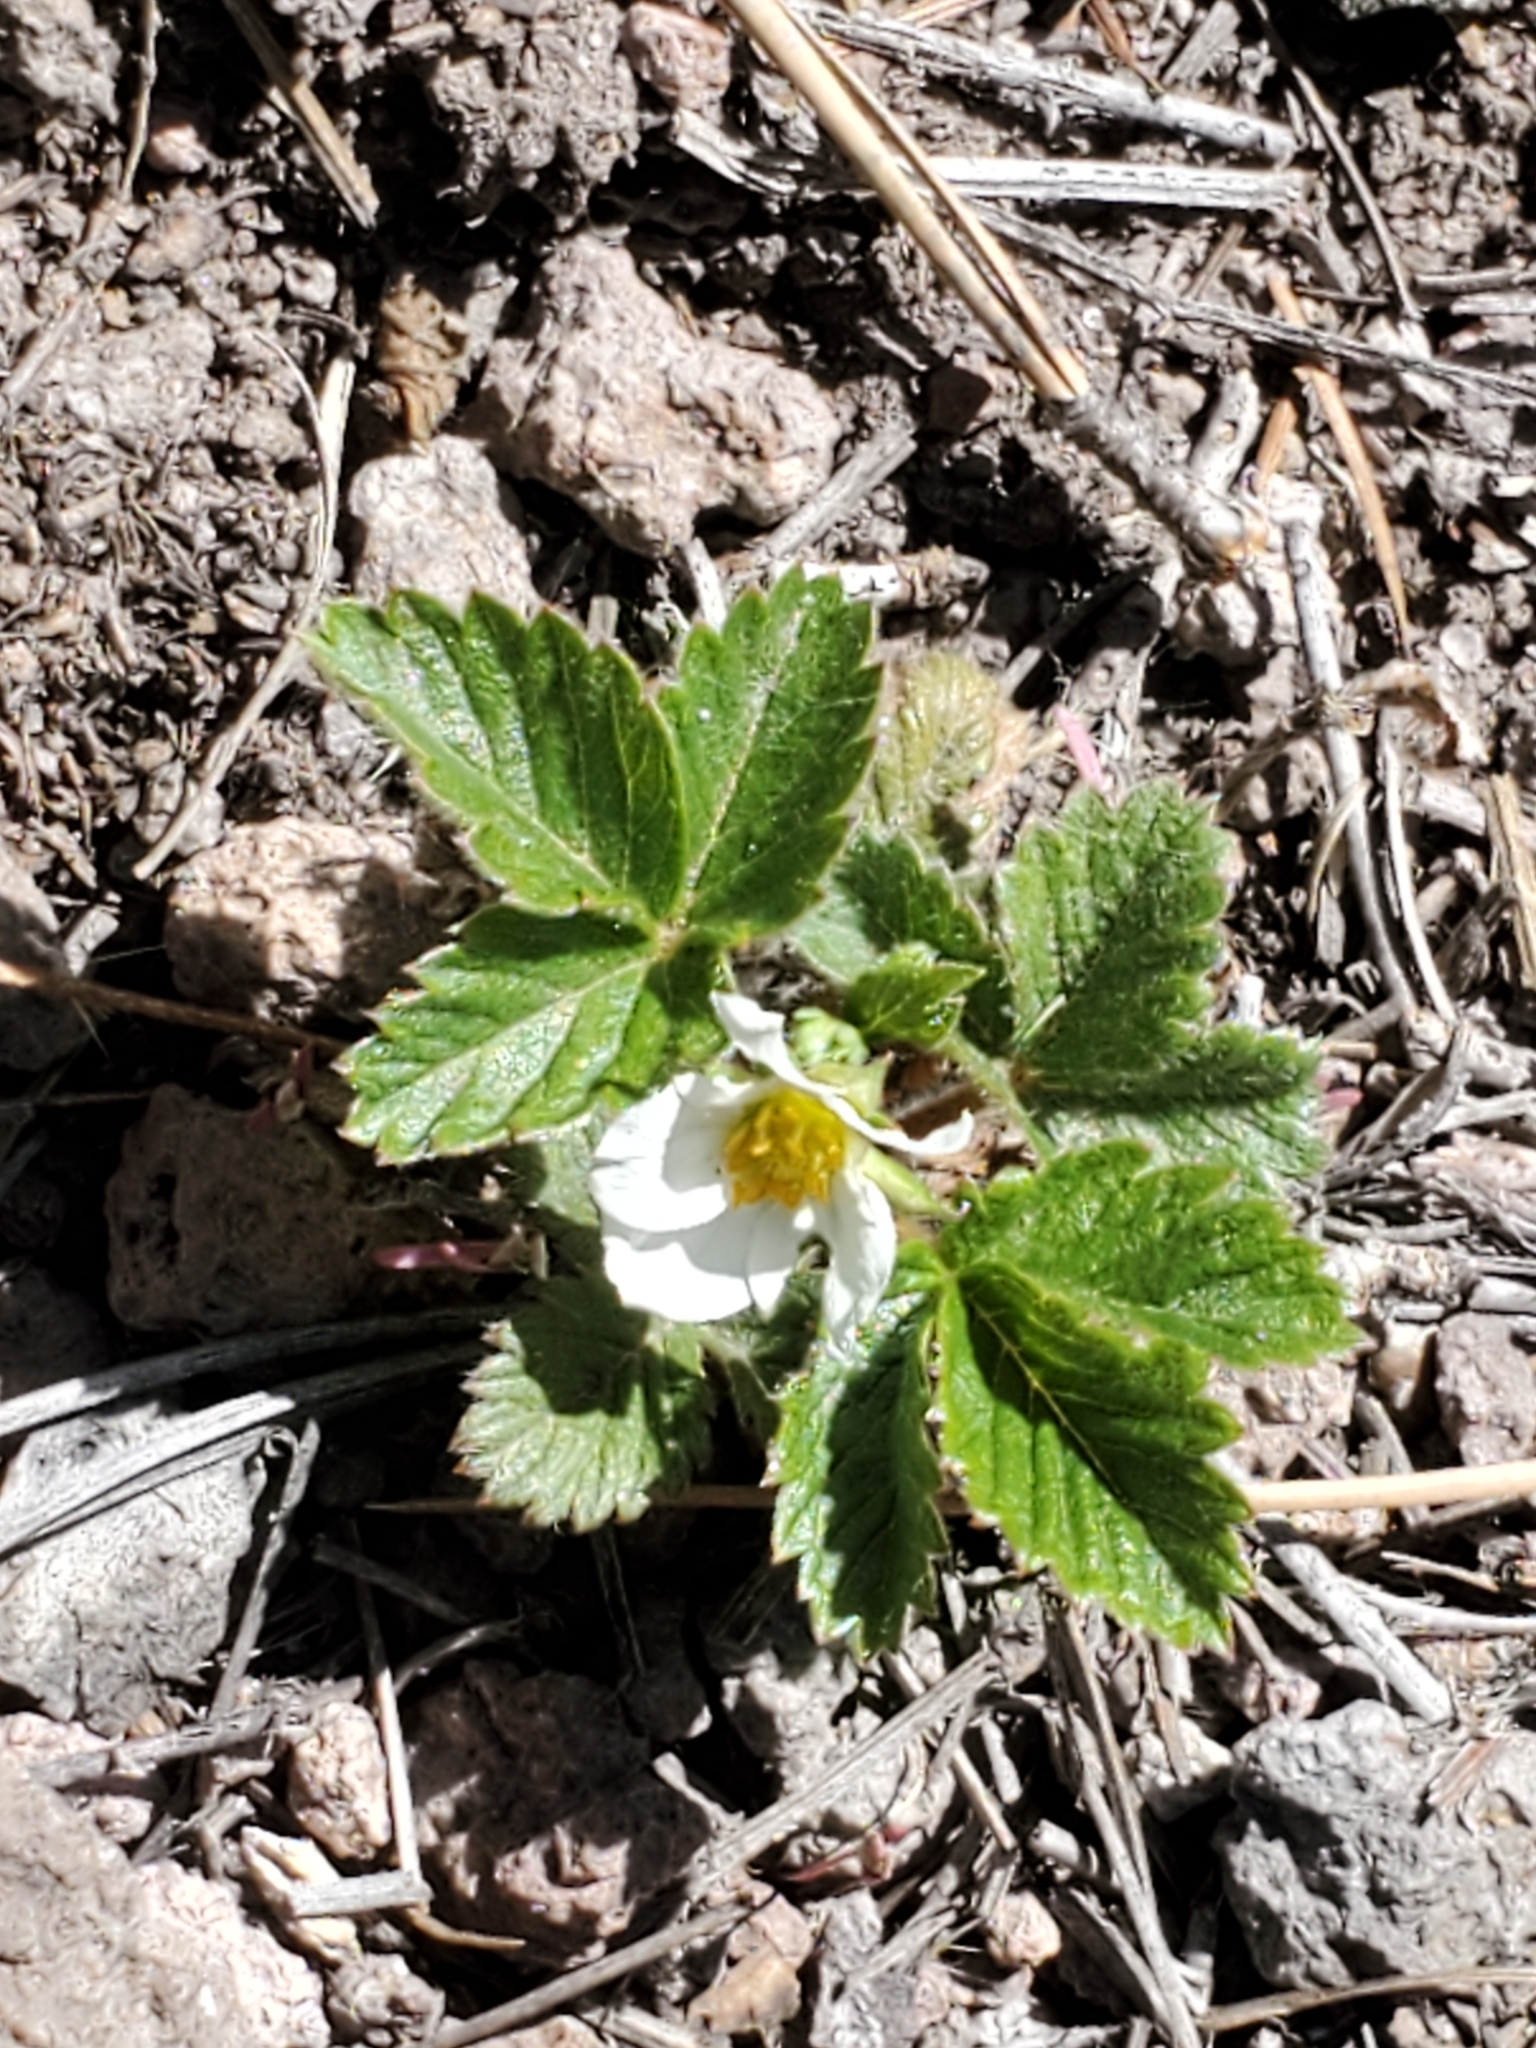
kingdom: Plantae
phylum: Tracheophyta
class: Magnoliopsida
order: Rosales
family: Rosaceae
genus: Fragaria
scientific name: Fragaria vesca
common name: Wild strawberry
